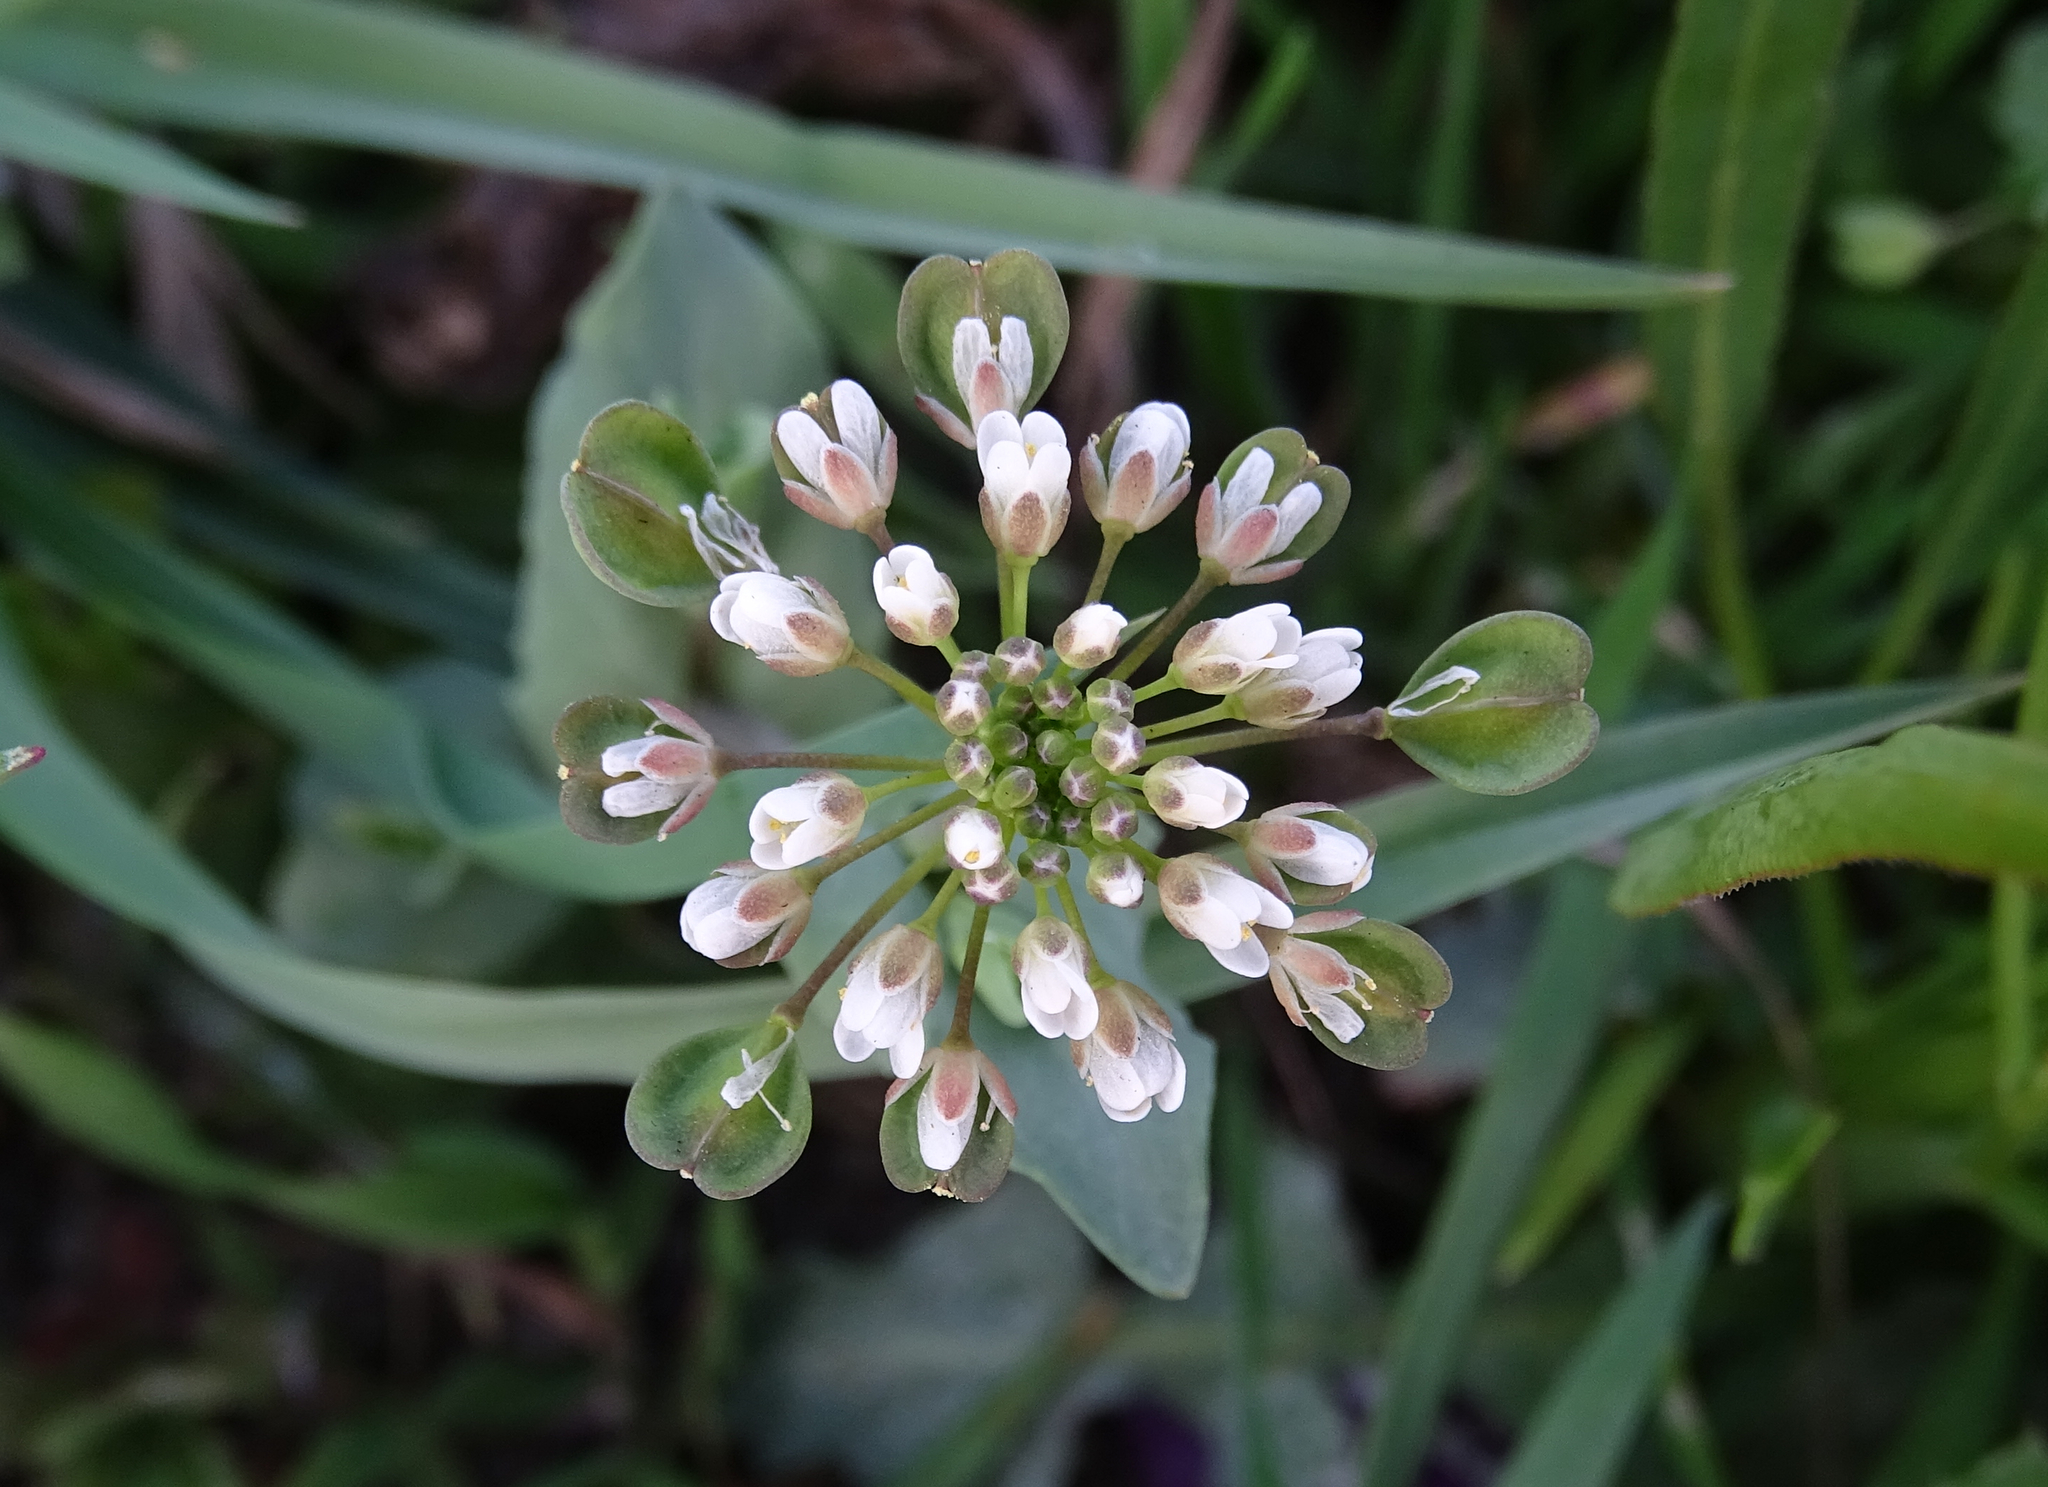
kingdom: Plantae
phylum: Tracheophyta
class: Magnoliopsida
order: Brassicales
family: Brassicaceae
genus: Noccaea
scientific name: Noccaea perfoliata
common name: Perfoliate pennycress
